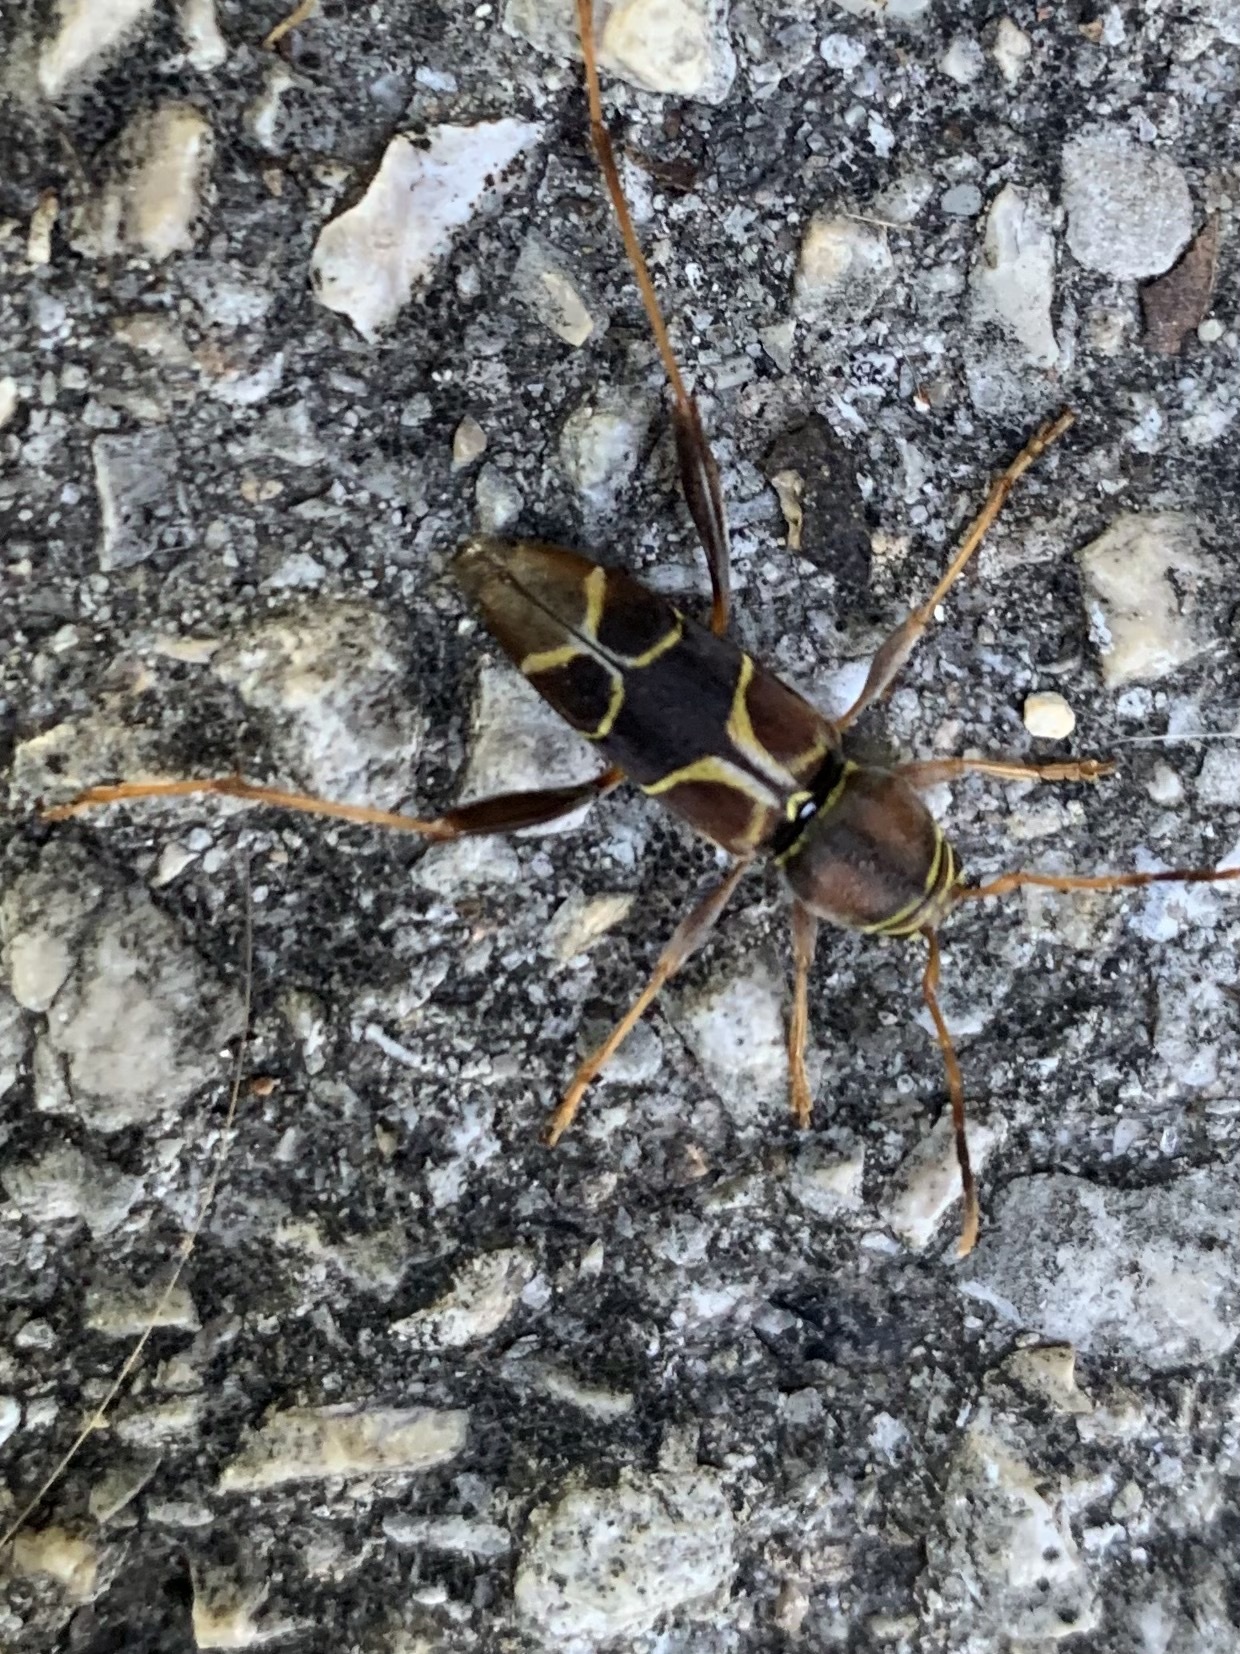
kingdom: Animalia
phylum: Arthropoda
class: Insecta
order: Coleoptera
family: Cerambycidae
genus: Neoclytus
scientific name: Neoclytus mucronatus
